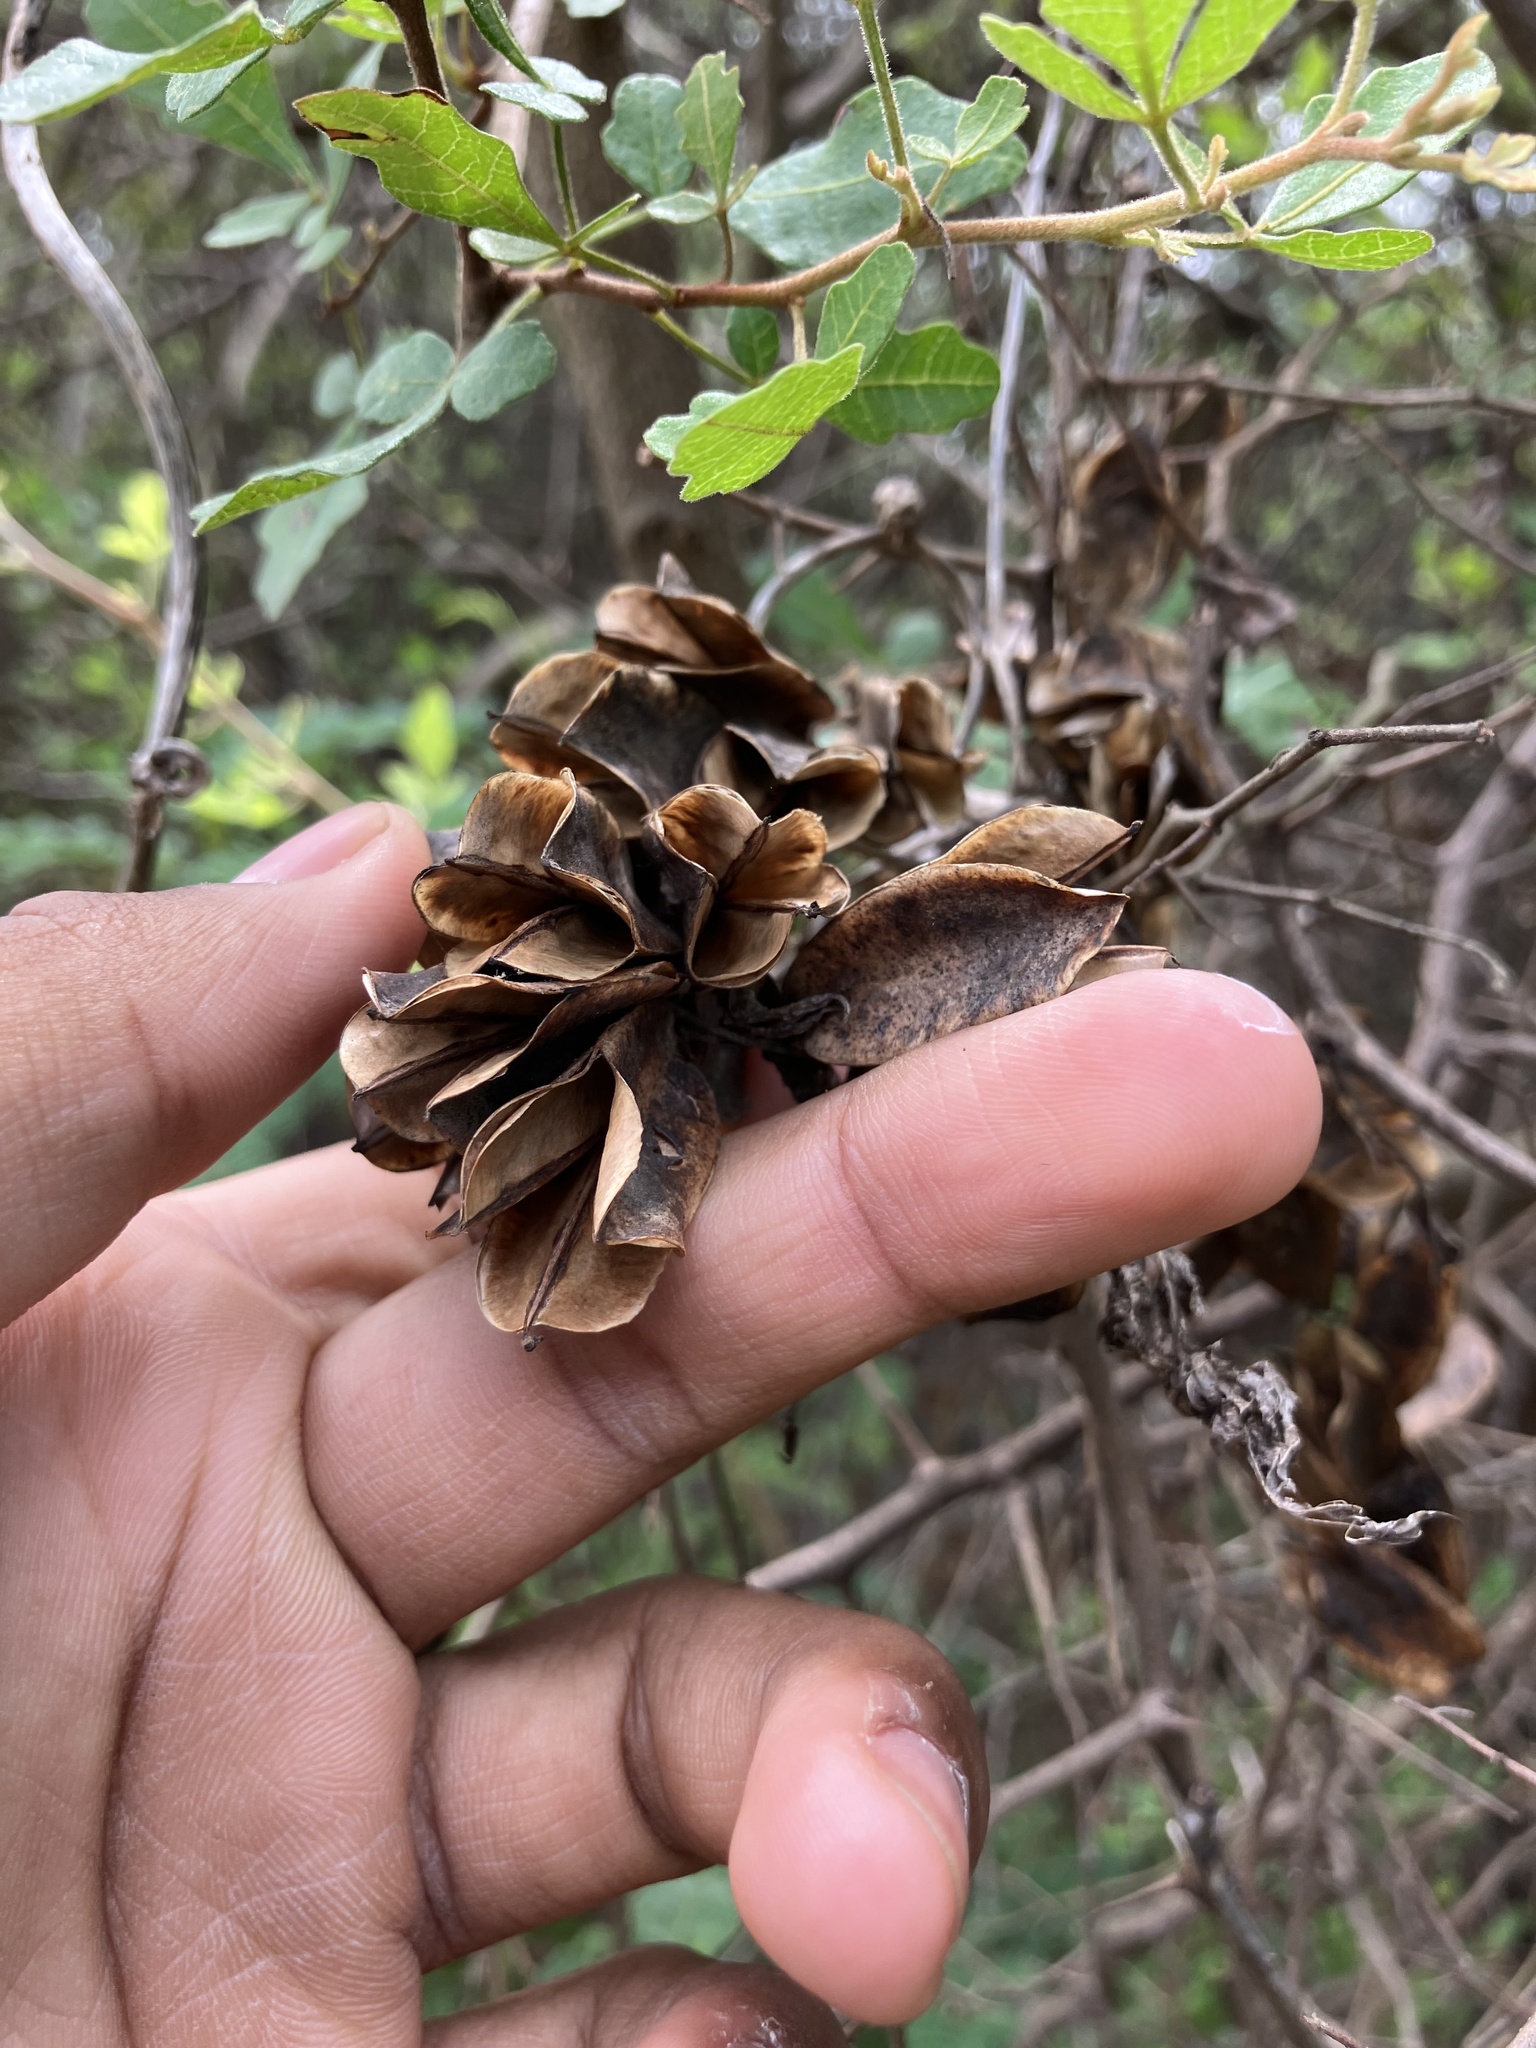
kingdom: Plantae
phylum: Tracheophyta
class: Liliopsida
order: Dioscoreales
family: Dioscoreaceae
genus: Dioscorea
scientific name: Dioscorea pentaphylla
